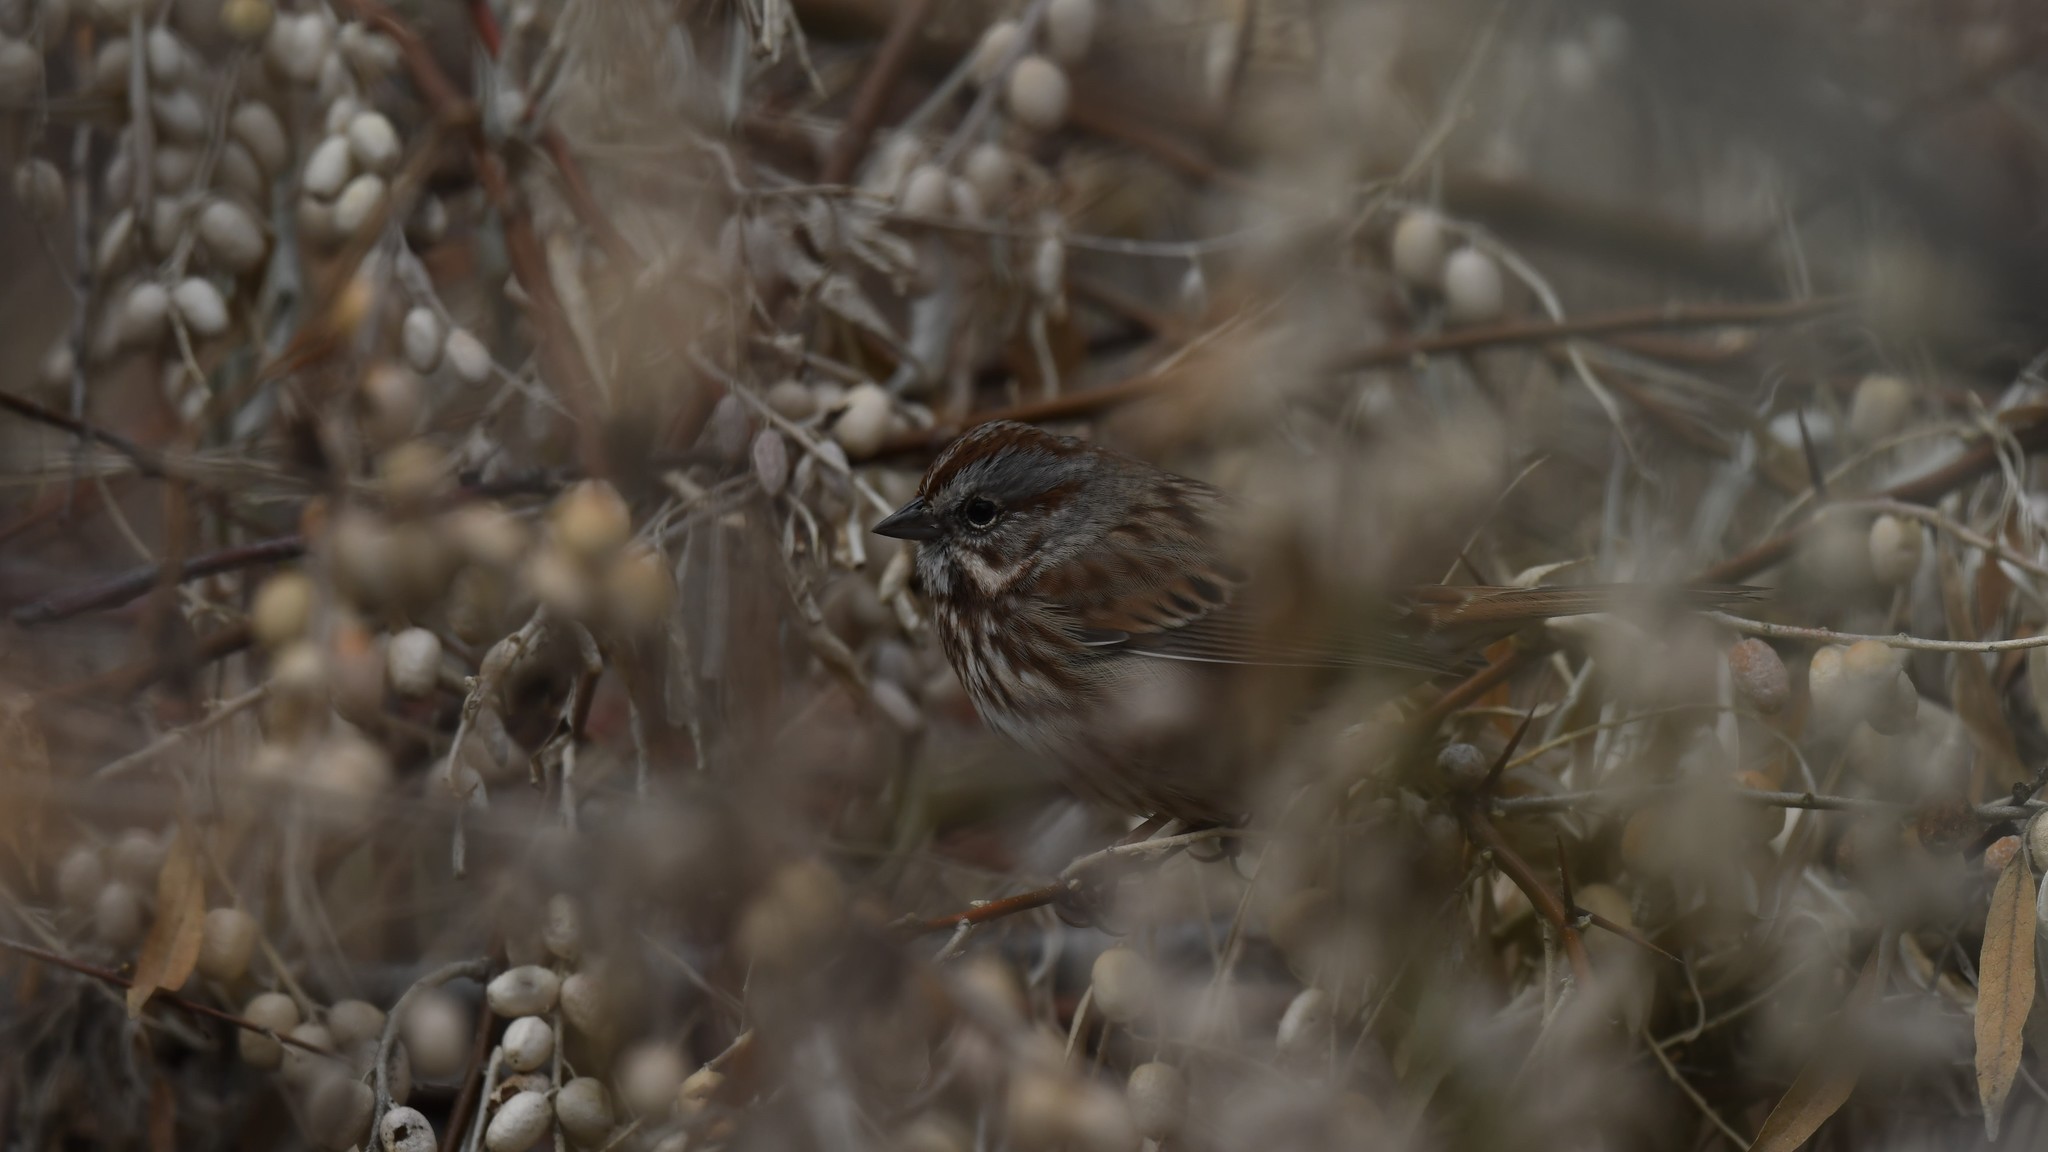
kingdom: Animalia
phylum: Chordata
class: Aves
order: Passeriformes
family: Passerellidae
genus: Melospiza
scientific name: Melospiza melodia
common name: Song sparrow
